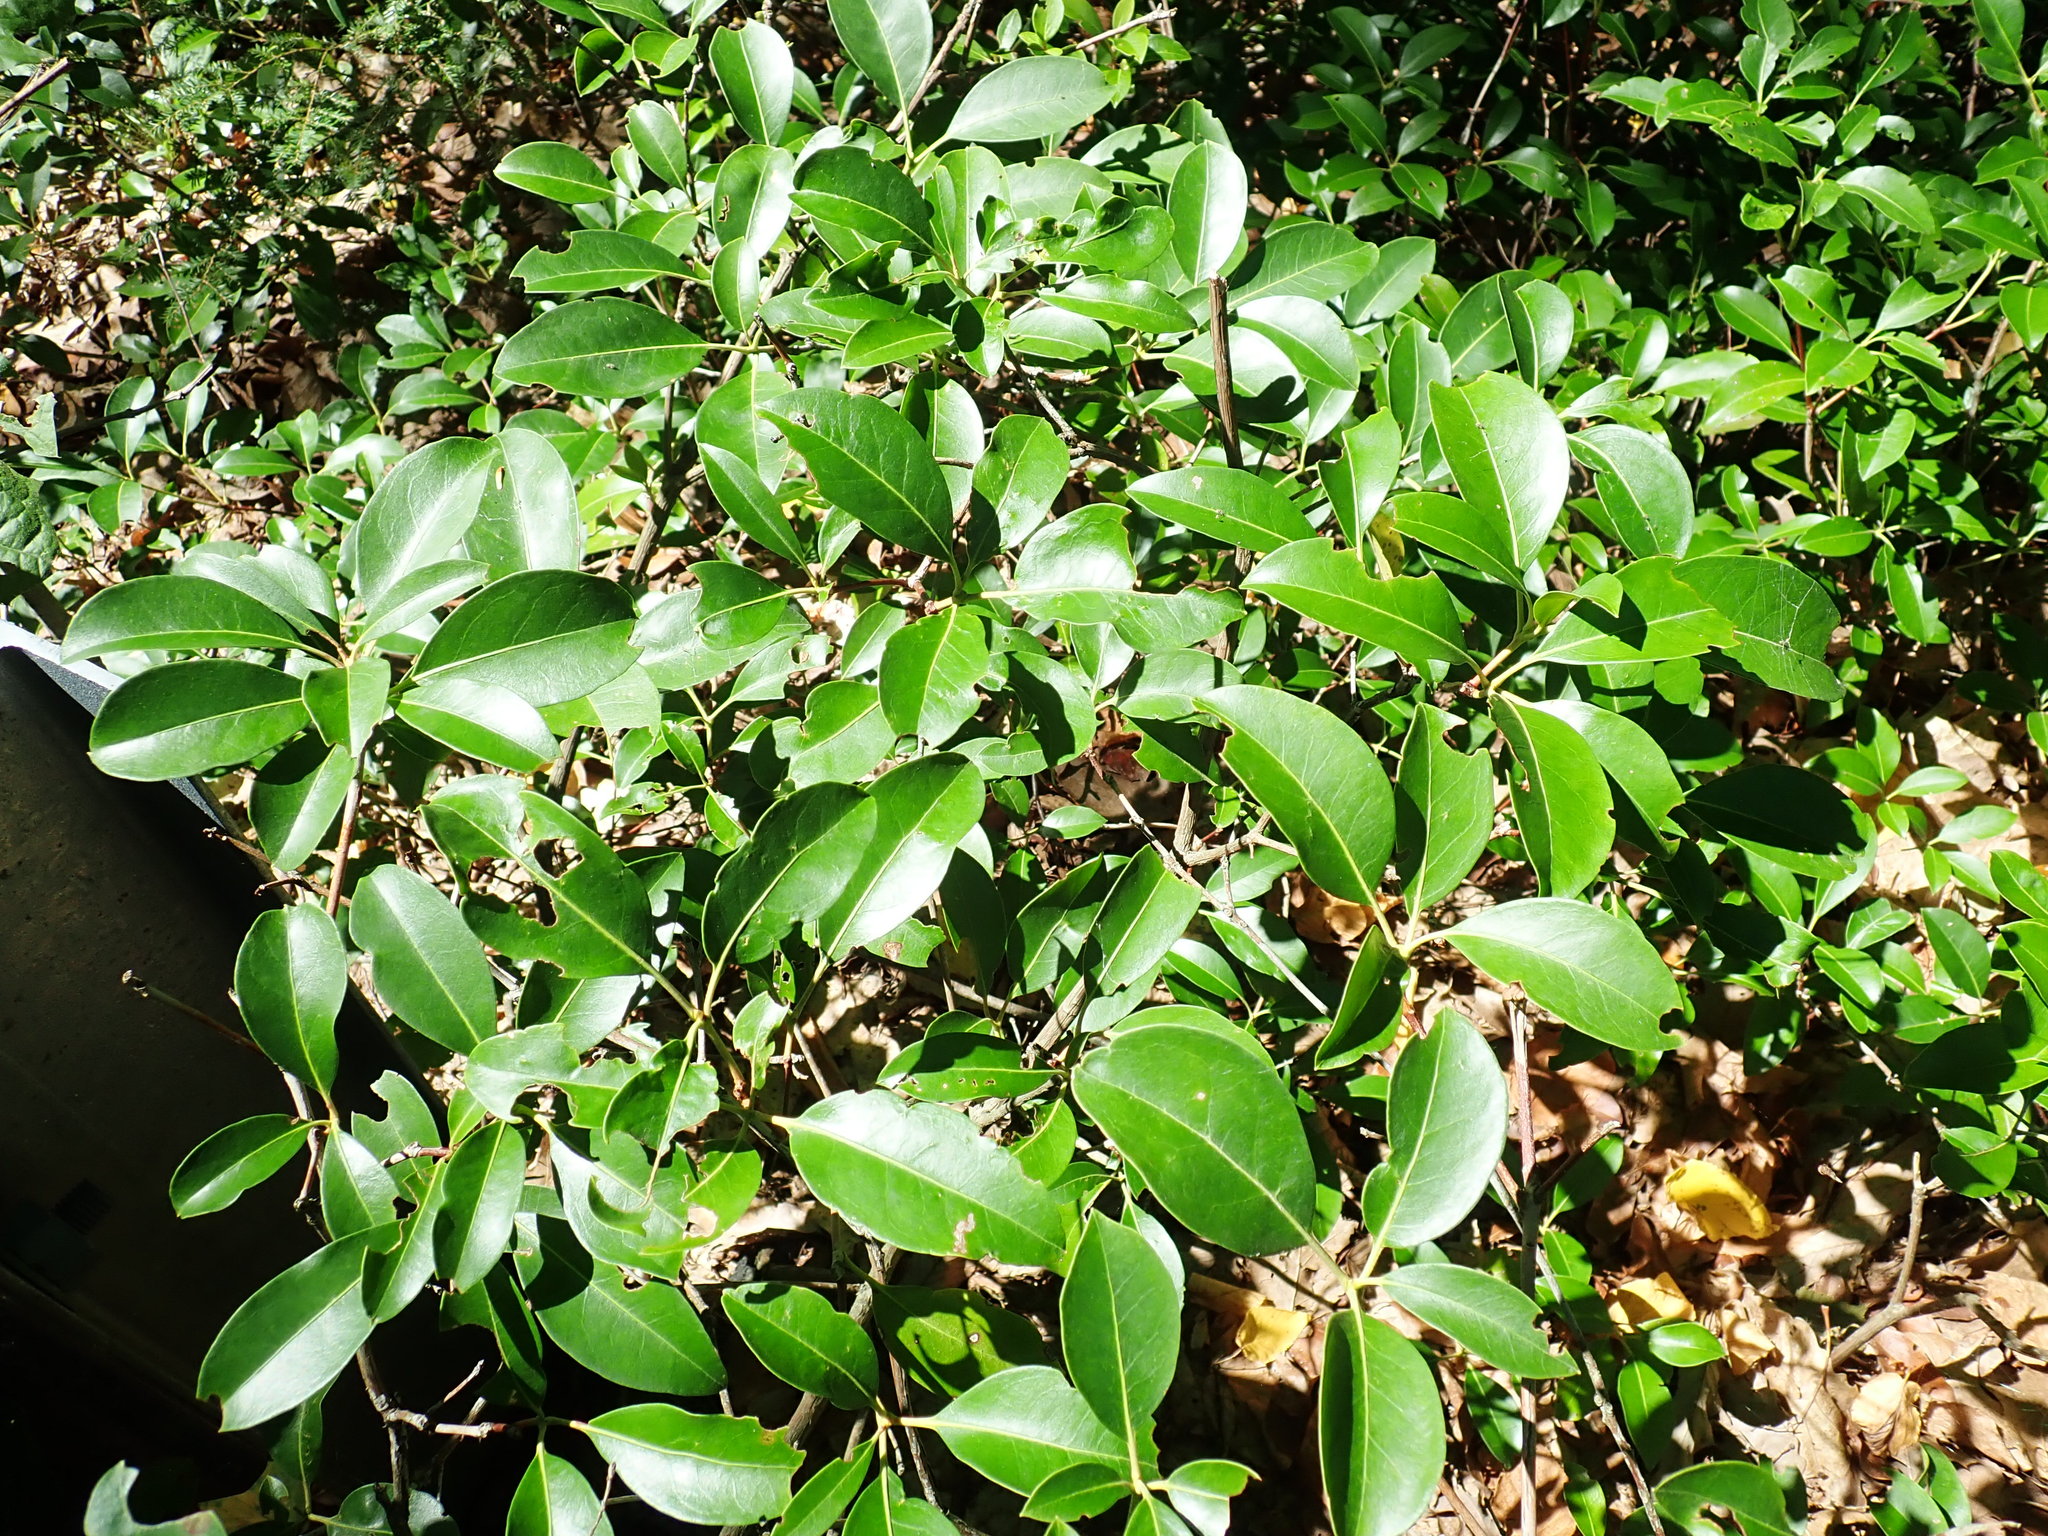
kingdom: Plantae
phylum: Tracheophyta
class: Magnoliopsida
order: Ericales
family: Ericaceae
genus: Kalmia
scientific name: Kalmia latifolia
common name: Mountain-laurel
